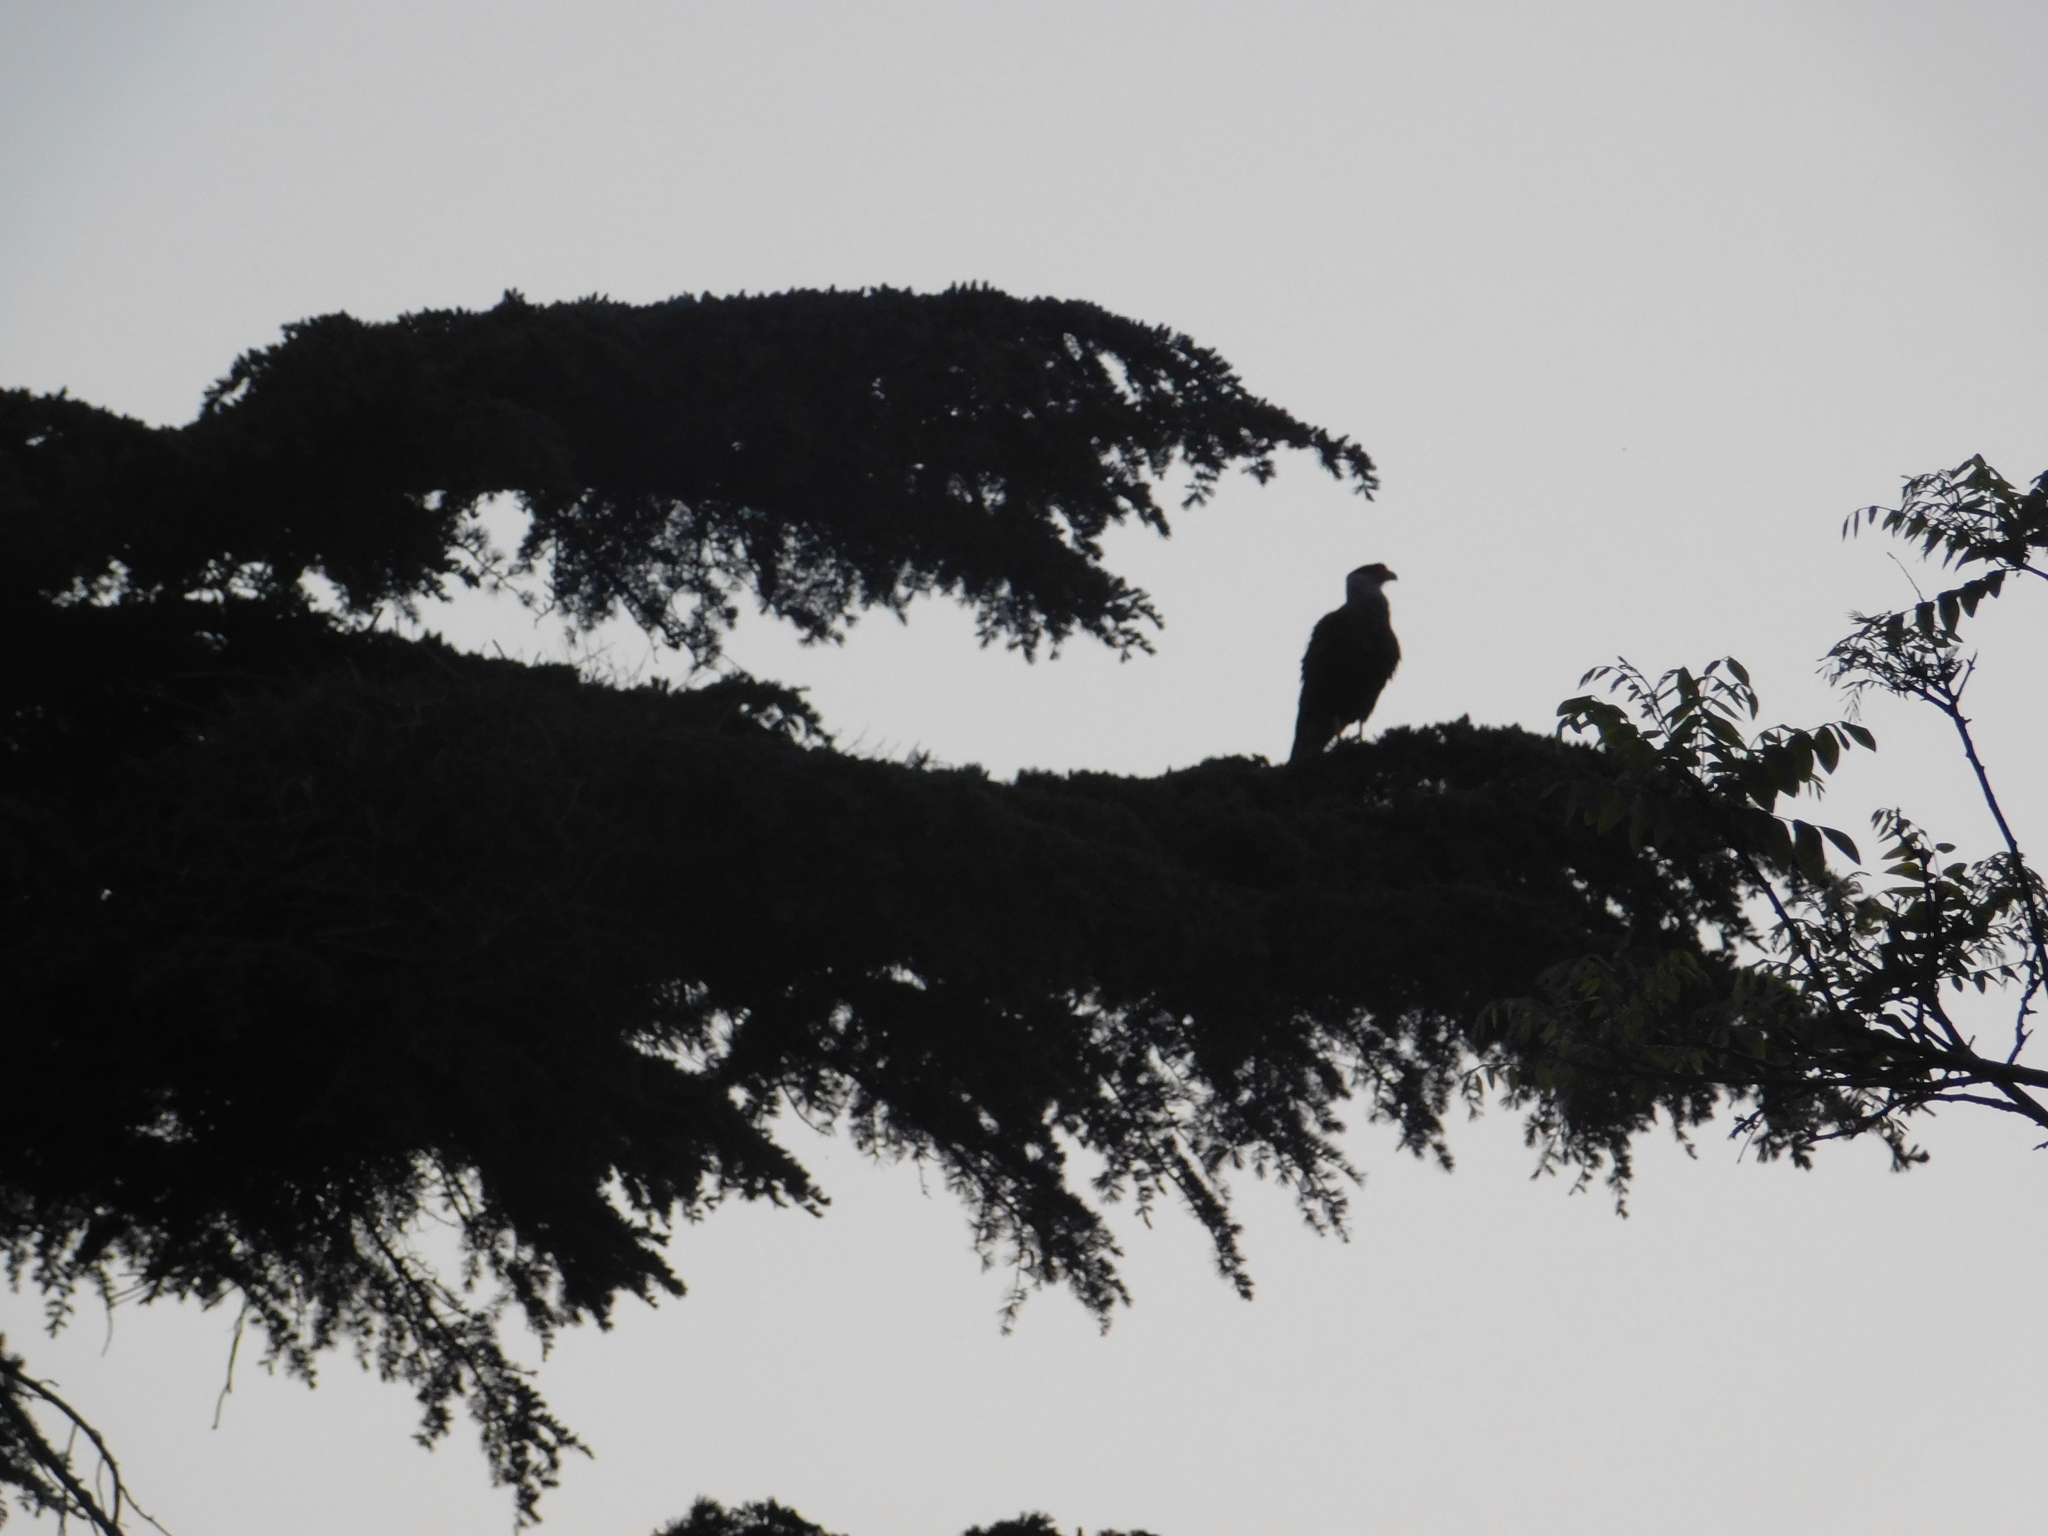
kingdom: Animalia
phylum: Chordata
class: Aves
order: Falconiformes
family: Falconidae
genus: Caracara
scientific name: Caracara plancus
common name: Southern caracara
